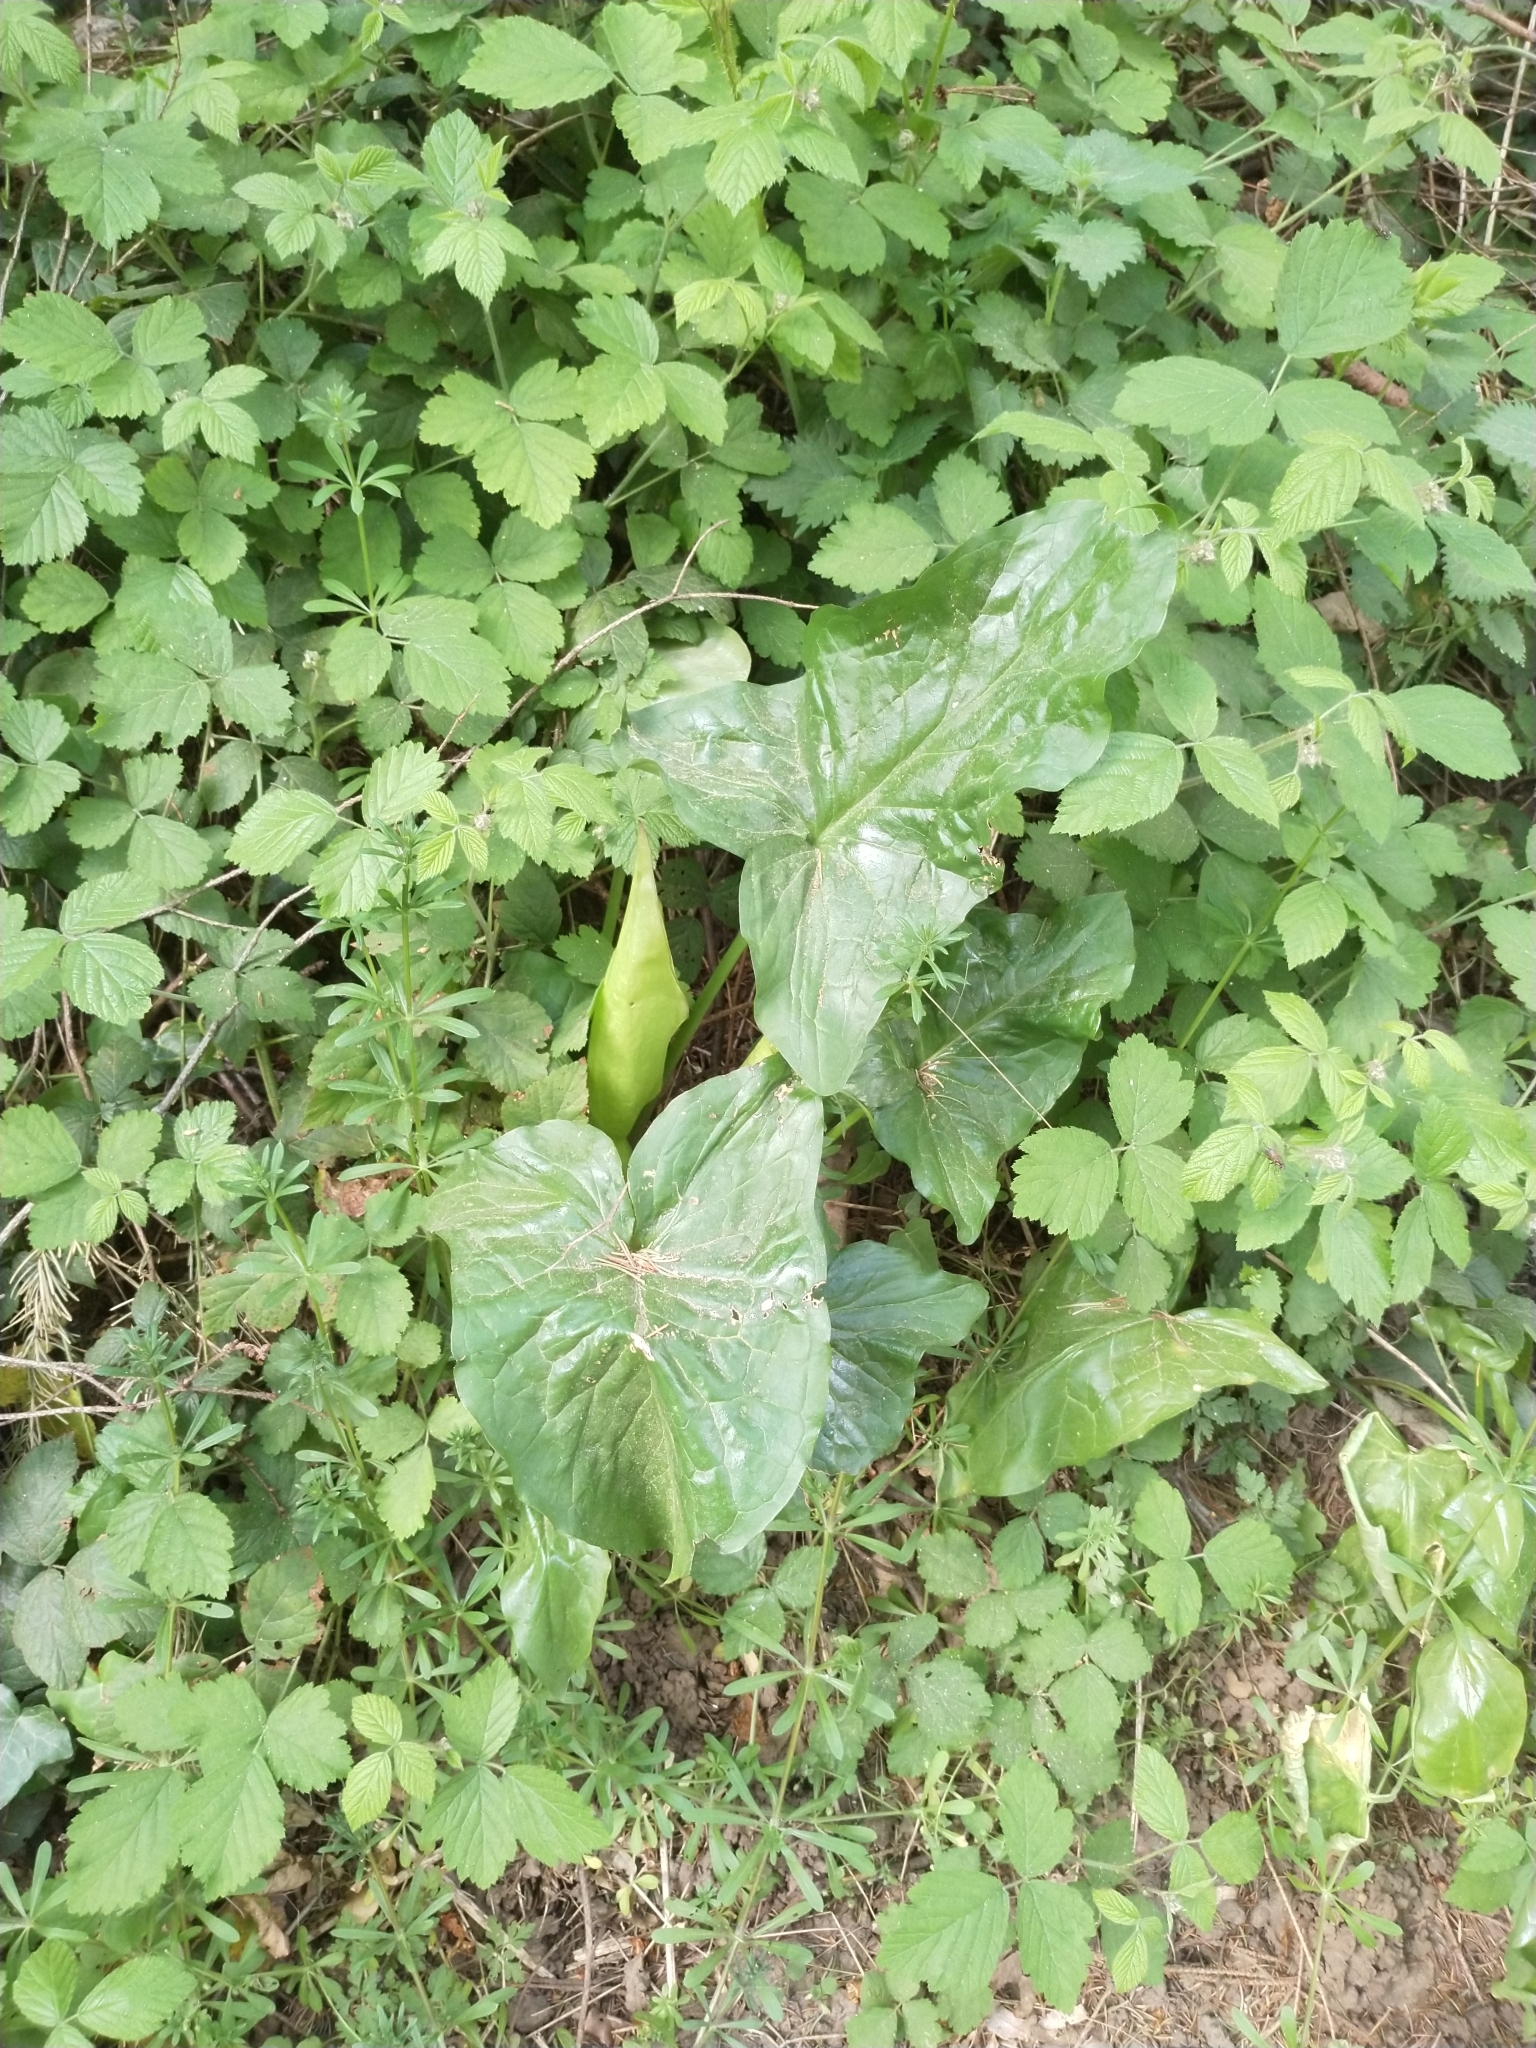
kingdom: Plantae
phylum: Tracheophyta
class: Liliopsida
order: Alismatales
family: Araceae
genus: Arum
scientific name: Arum maculatum
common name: Lords-and-ladies
